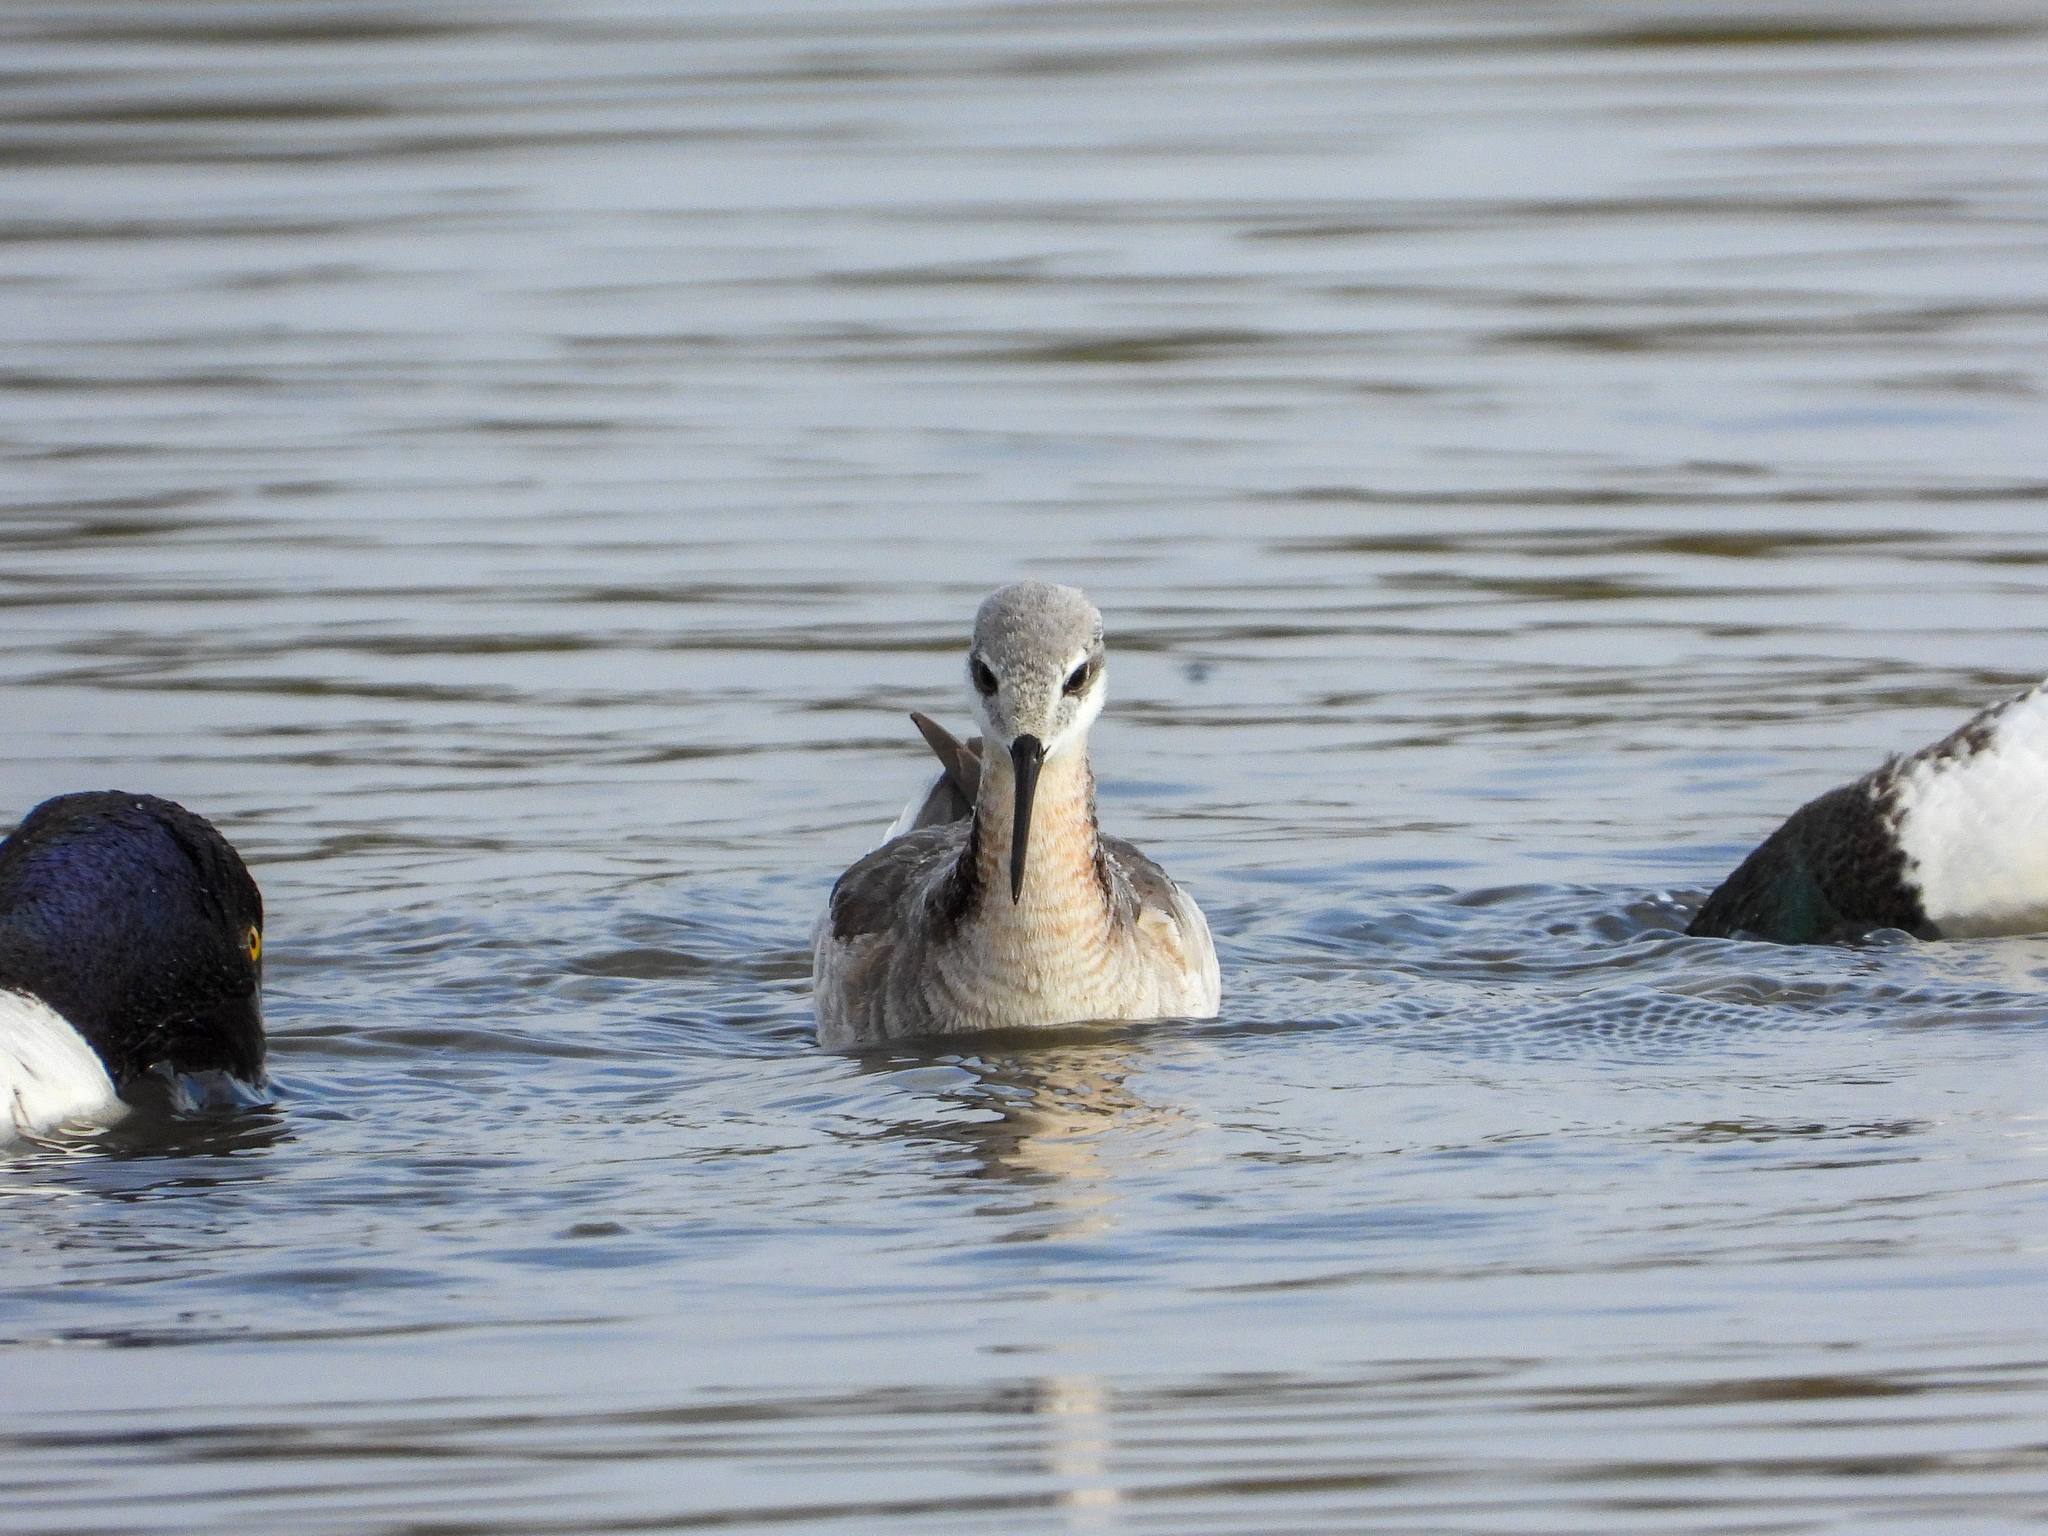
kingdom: Animalia
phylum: Chordata
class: Aves
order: Charadriiformes
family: Scolopacidae
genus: Phalaropus
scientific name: Phalaropus tricolor
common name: Wilson's phalarope
